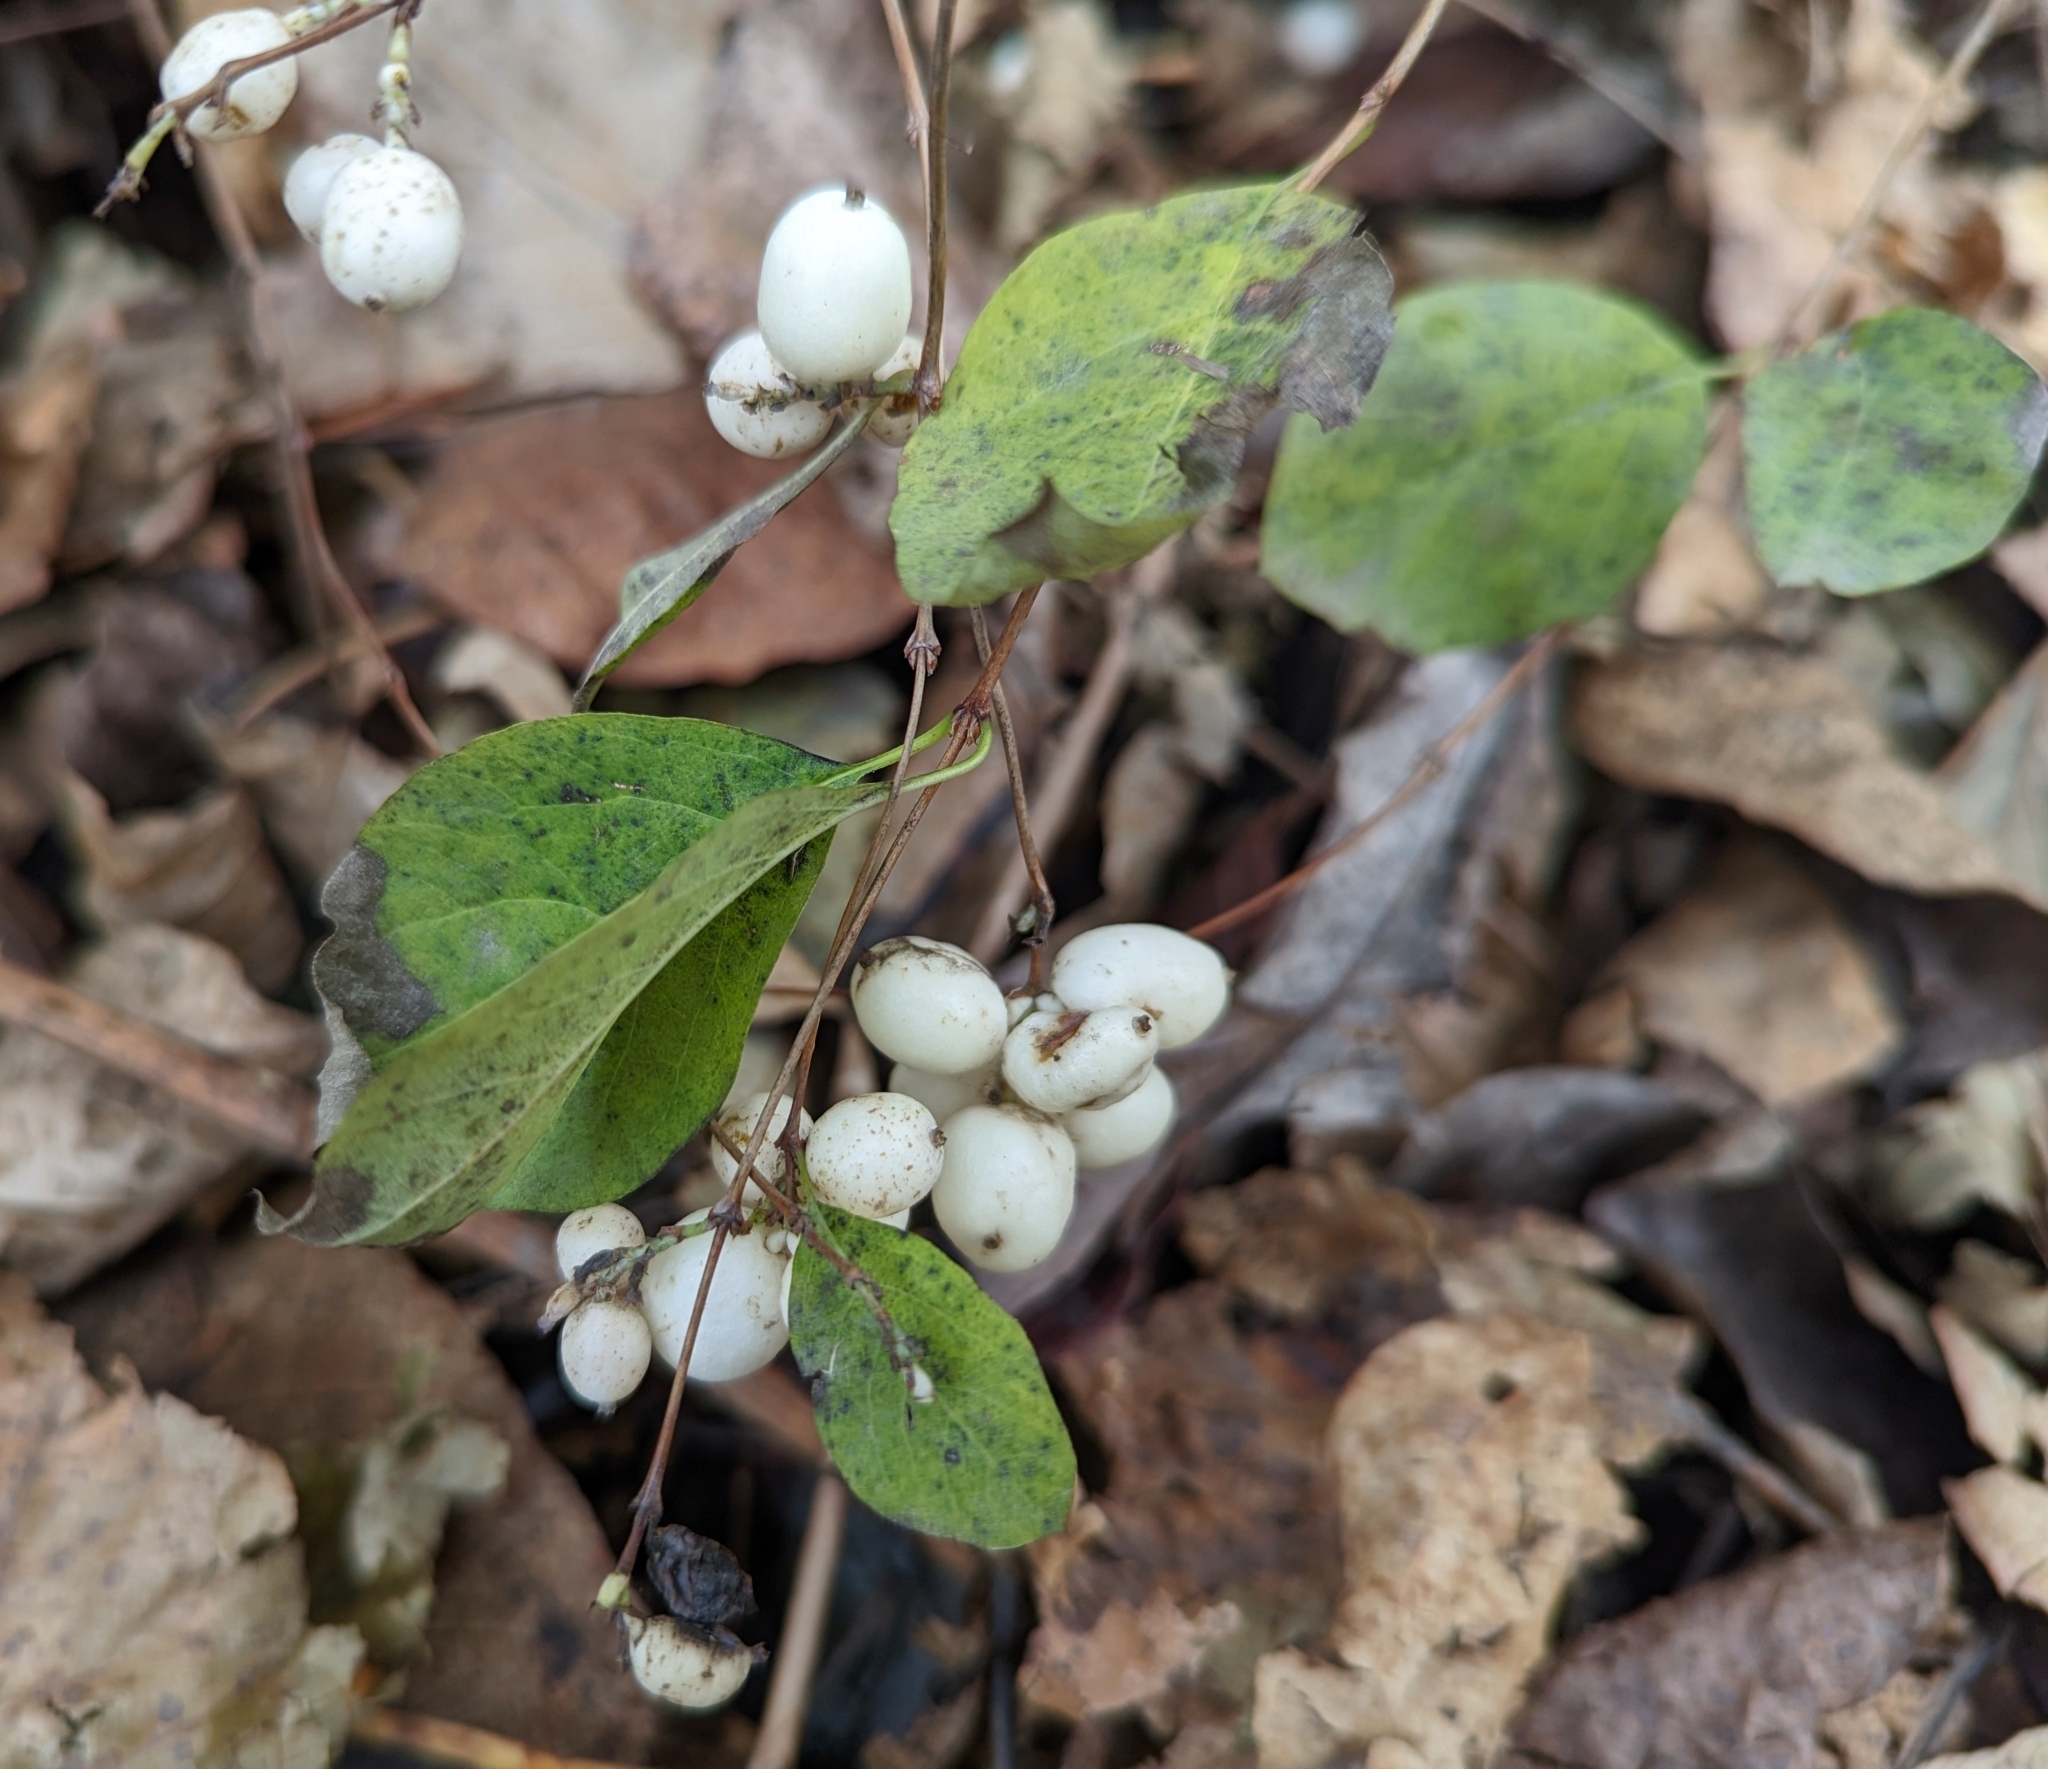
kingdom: Plantae
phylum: Tracheophyta
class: Magnoliopsida
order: Dipsacales
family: Caprifoliaceae
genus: Symphoricarpos
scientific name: Symphoricarpos albus
